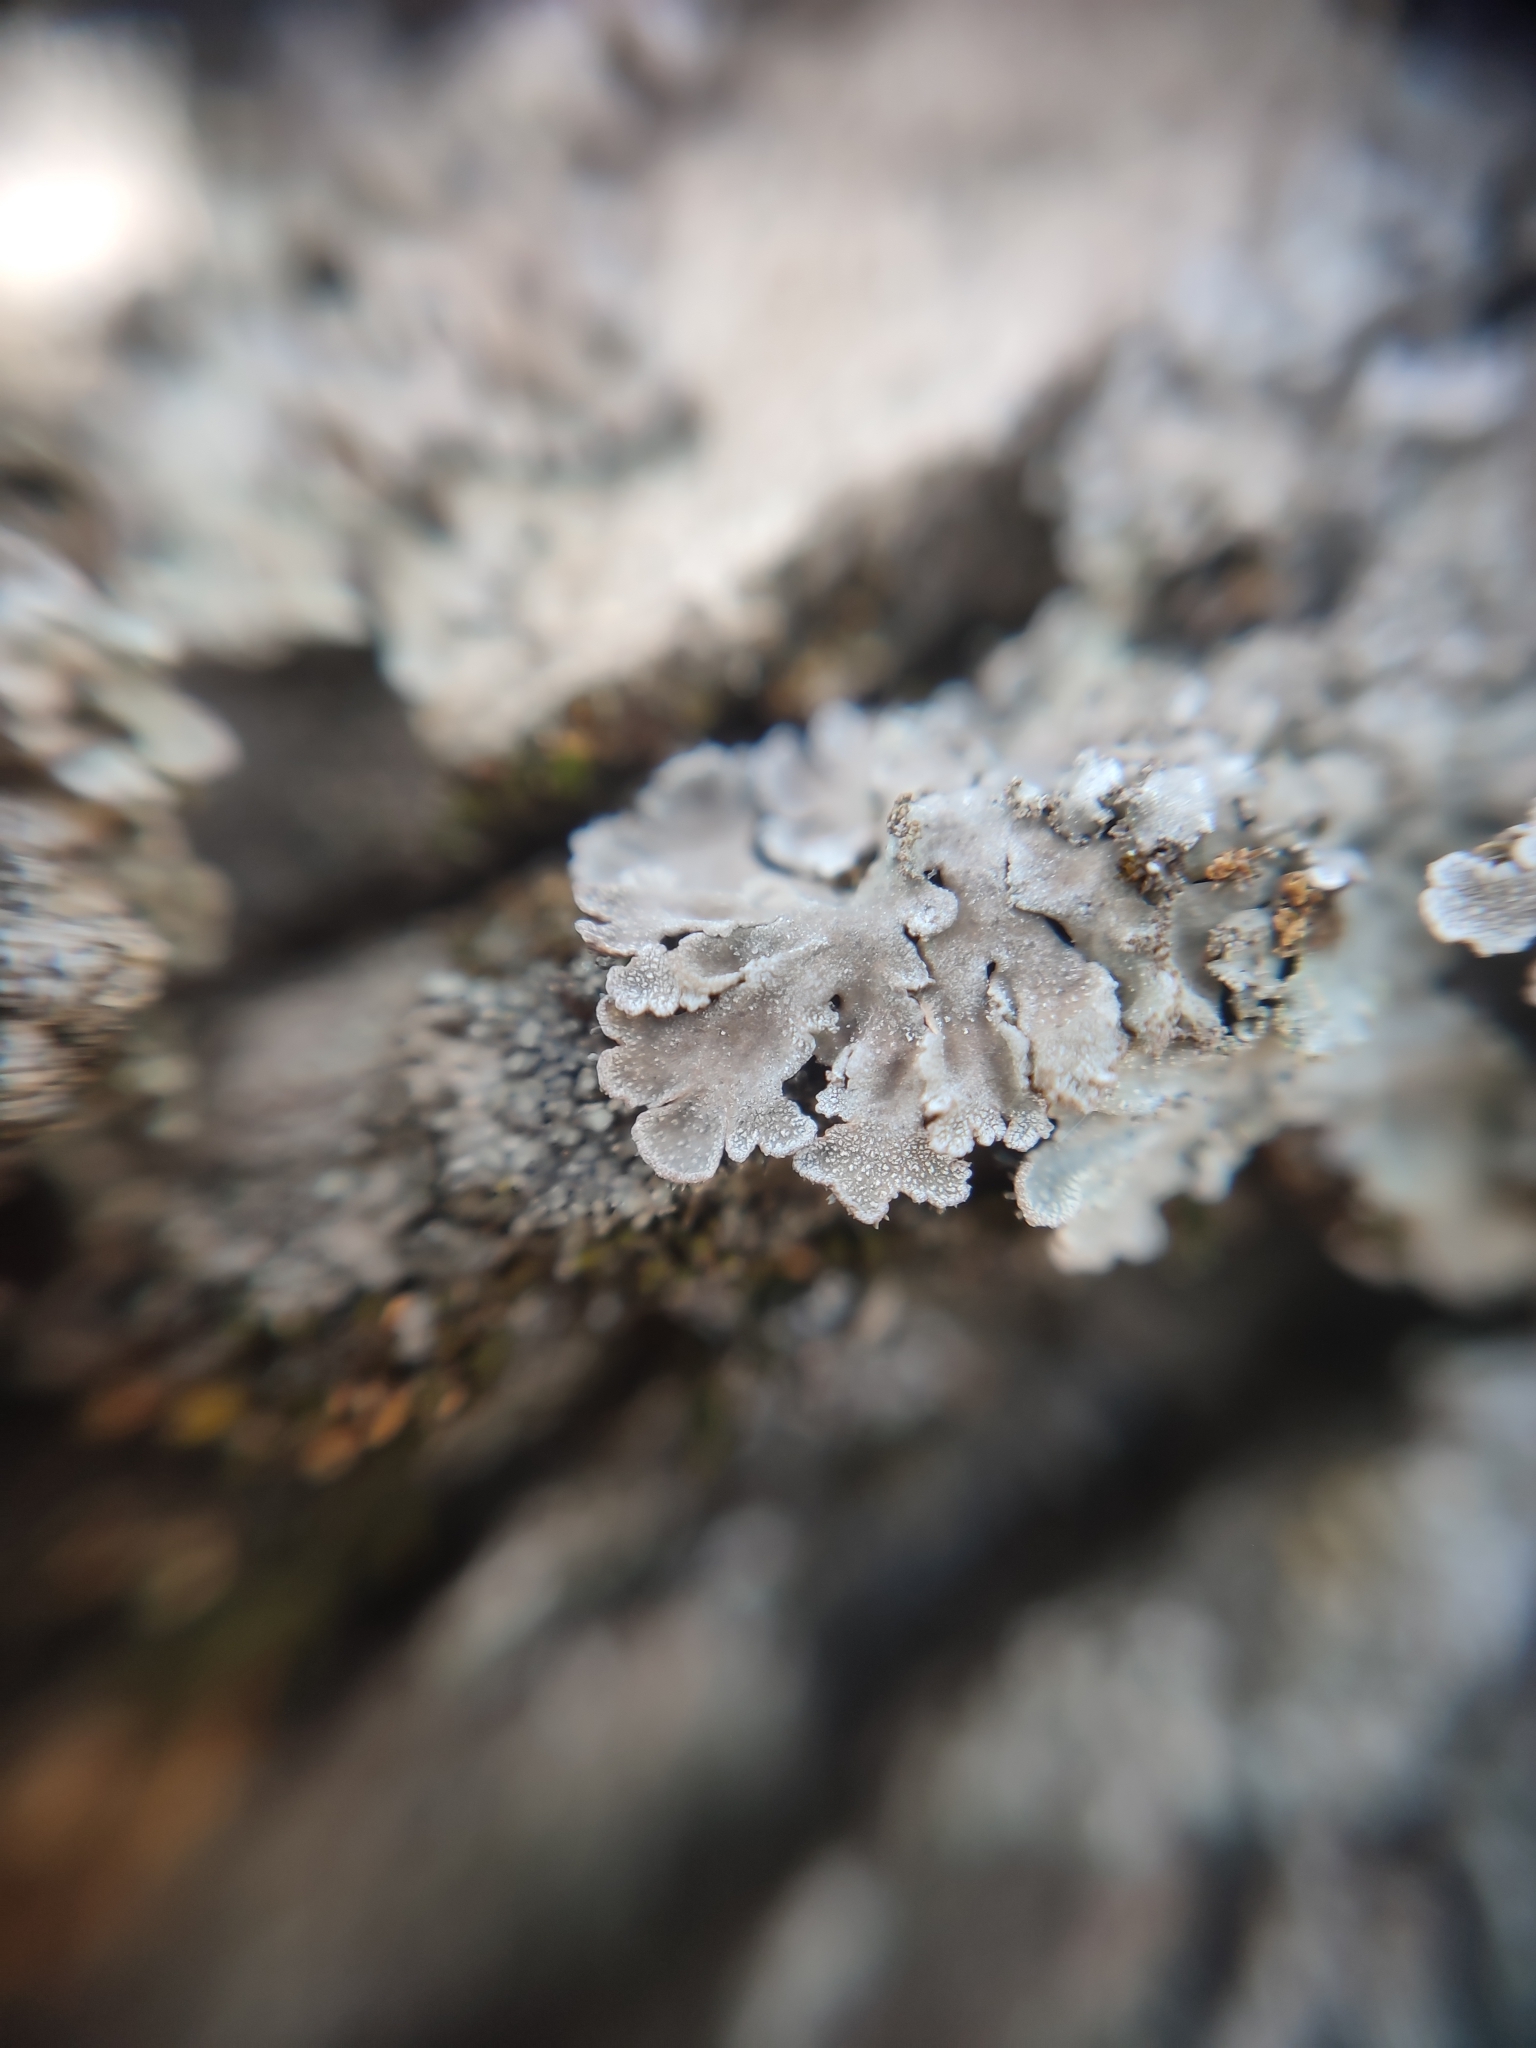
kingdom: Fungi
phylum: Ascomycota
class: Lecanoromycetes
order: Caliciales
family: Physciaceae
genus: Poeltonia
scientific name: Poeltonia grisea
